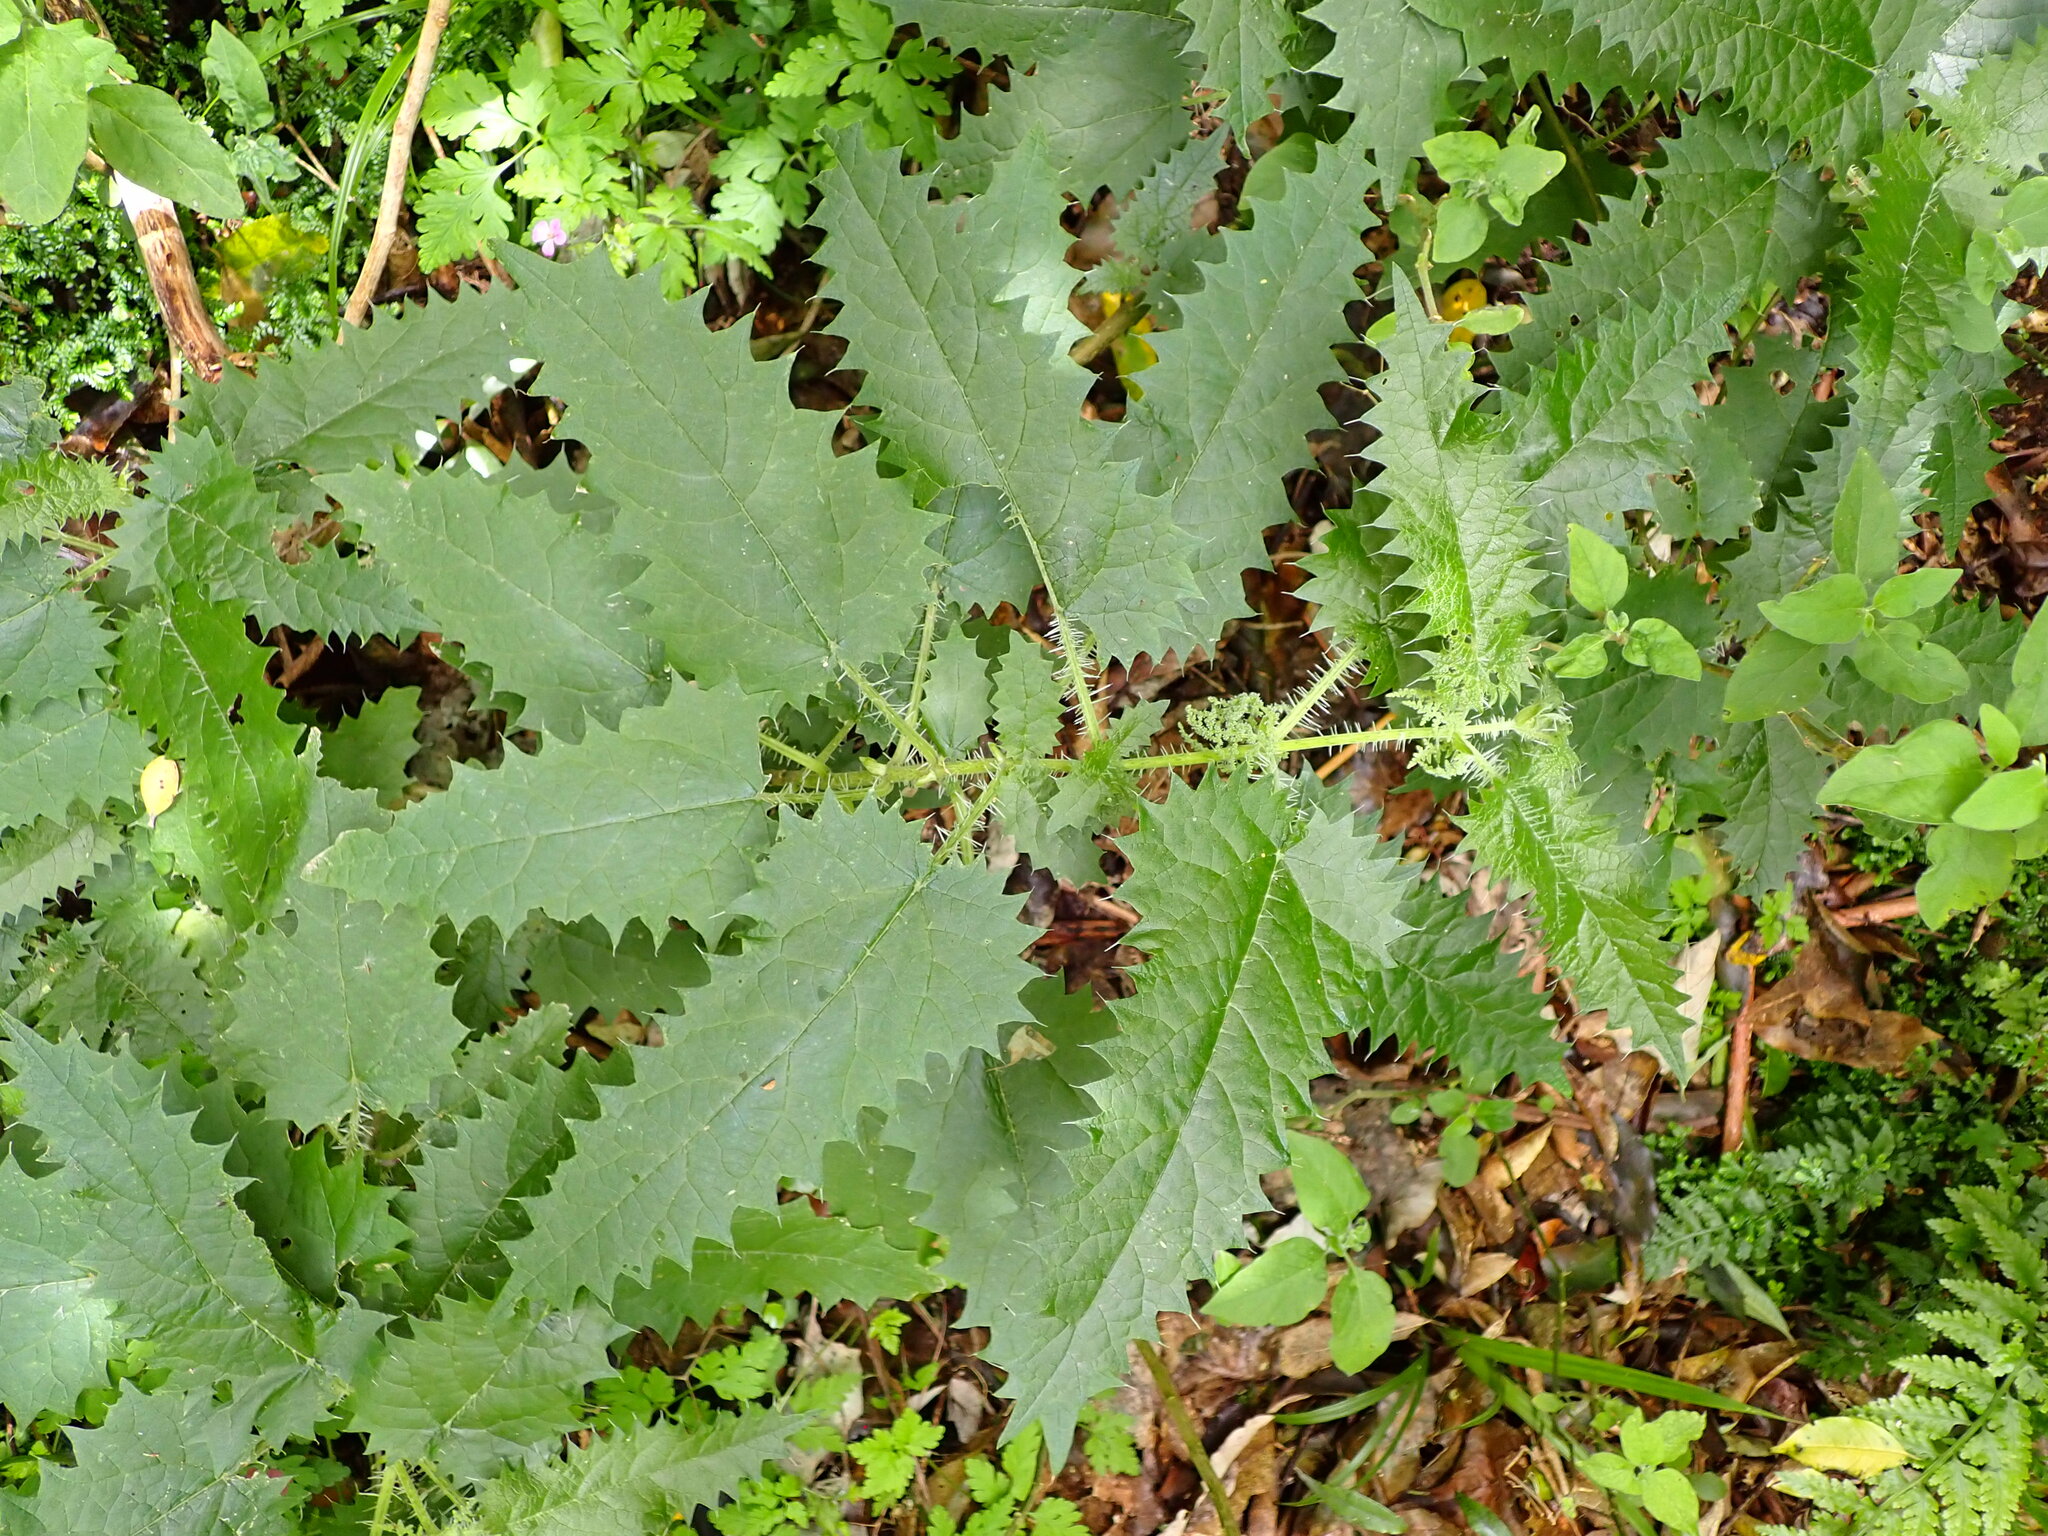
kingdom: Plantae
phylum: Tracheophyta
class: Magnoliopsida
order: Rosales
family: Urticaceae
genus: Urtica
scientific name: Urtica ferox
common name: Tree nettle
